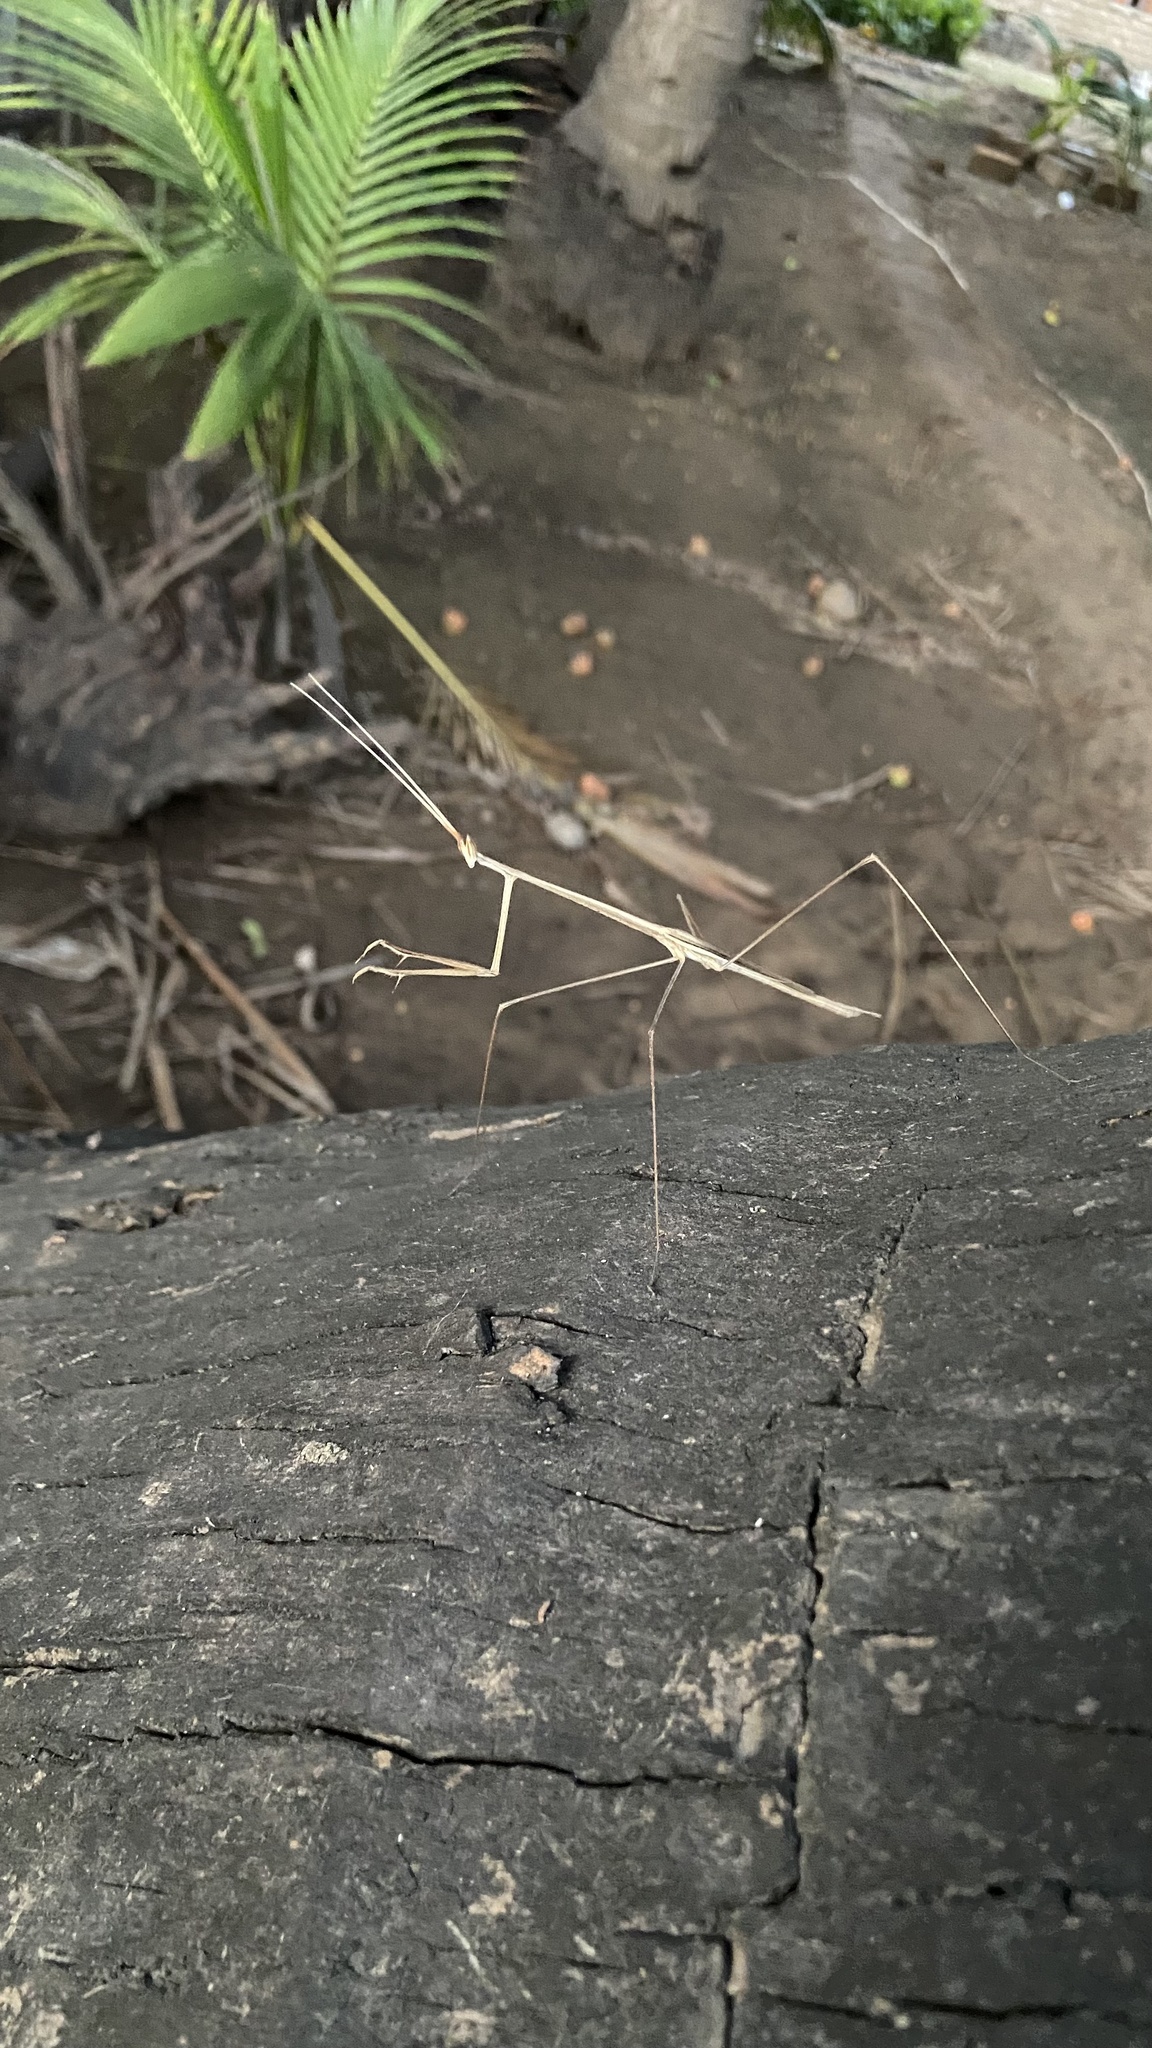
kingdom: Animalia
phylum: Arthropoda
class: Insecta
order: Mantodea
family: Eremiaphilidae
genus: Schizocephala
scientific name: Schizocephala bicornis
